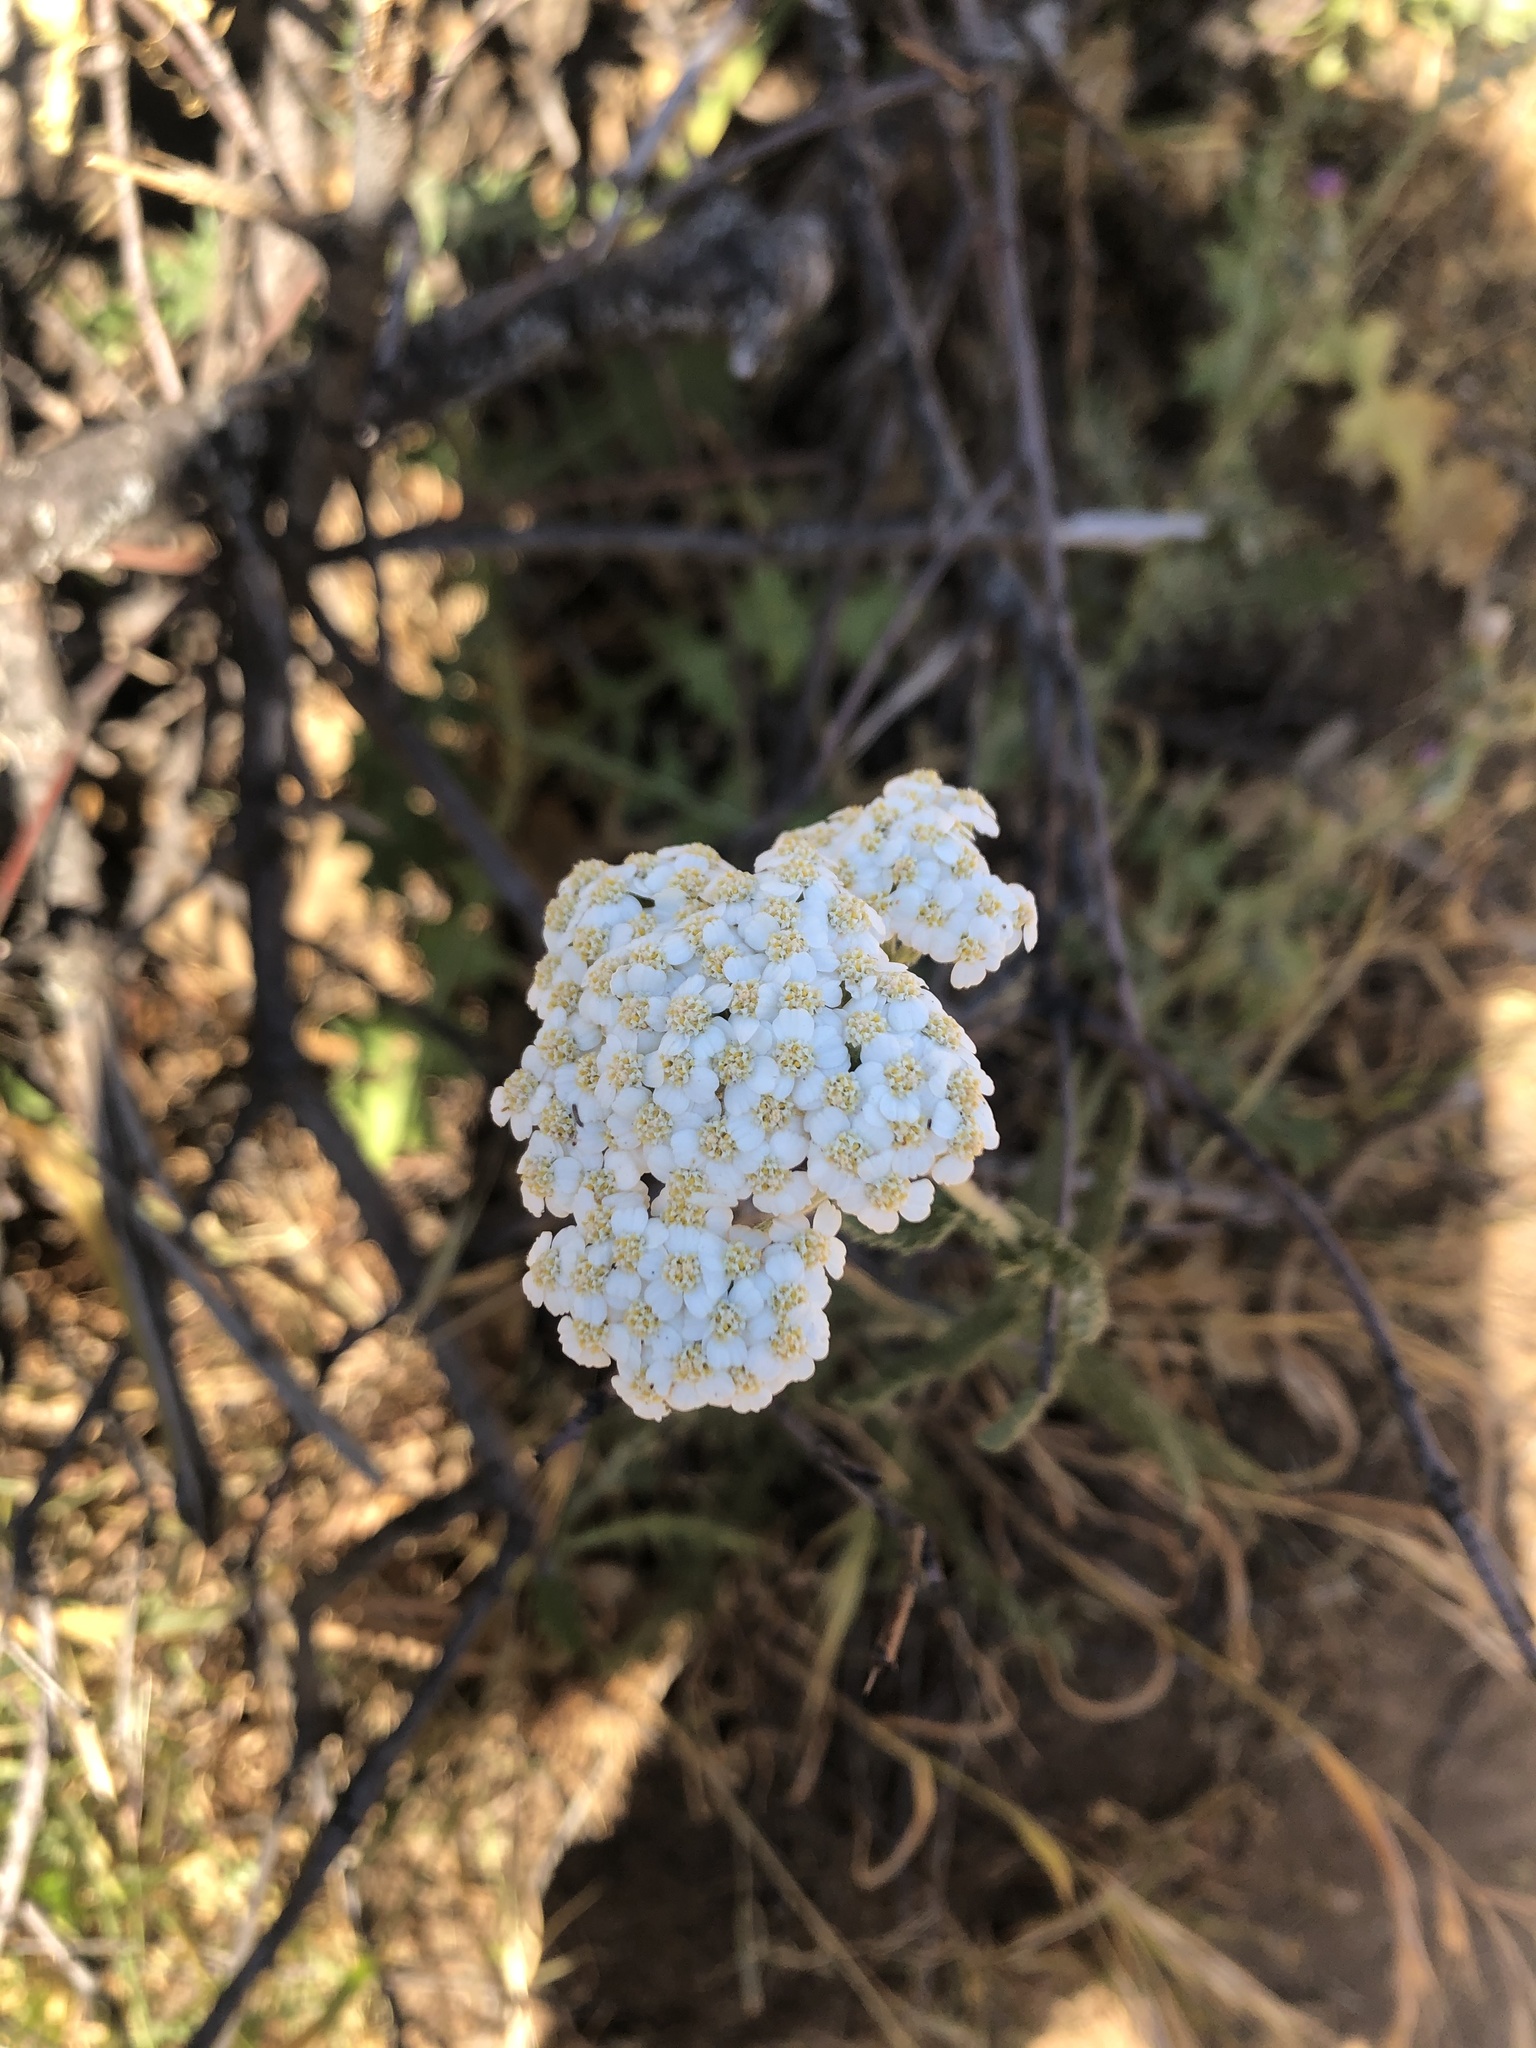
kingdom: Plantae
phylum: Tracheophyta
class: Magnoliopsida
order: Asterales
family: Asteraceae
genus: Achillea
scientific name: Achillea millefolium
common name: Yarrow
